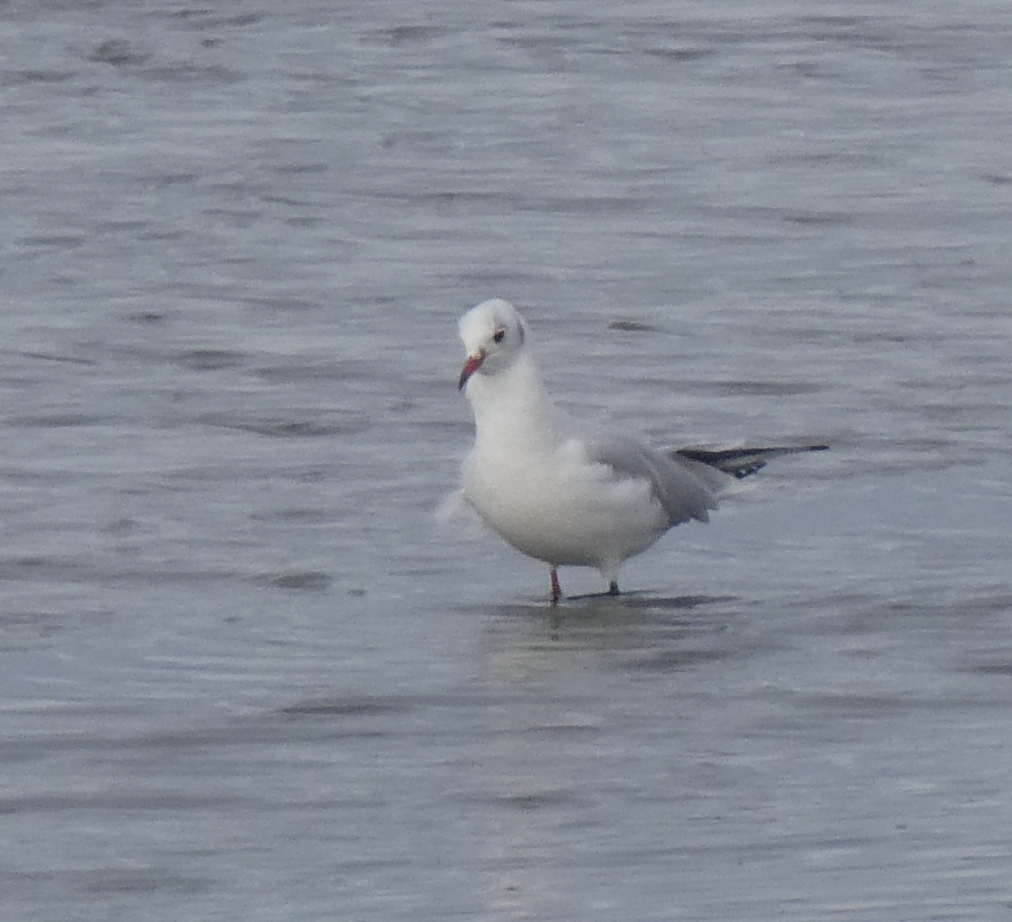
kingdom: Animalia
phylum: Chordata
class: Aves
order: Charadriiformes
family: Laridae
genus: Chroicocephalus
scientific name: Chroicocephalus ridibundus
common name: Black-headed gull
